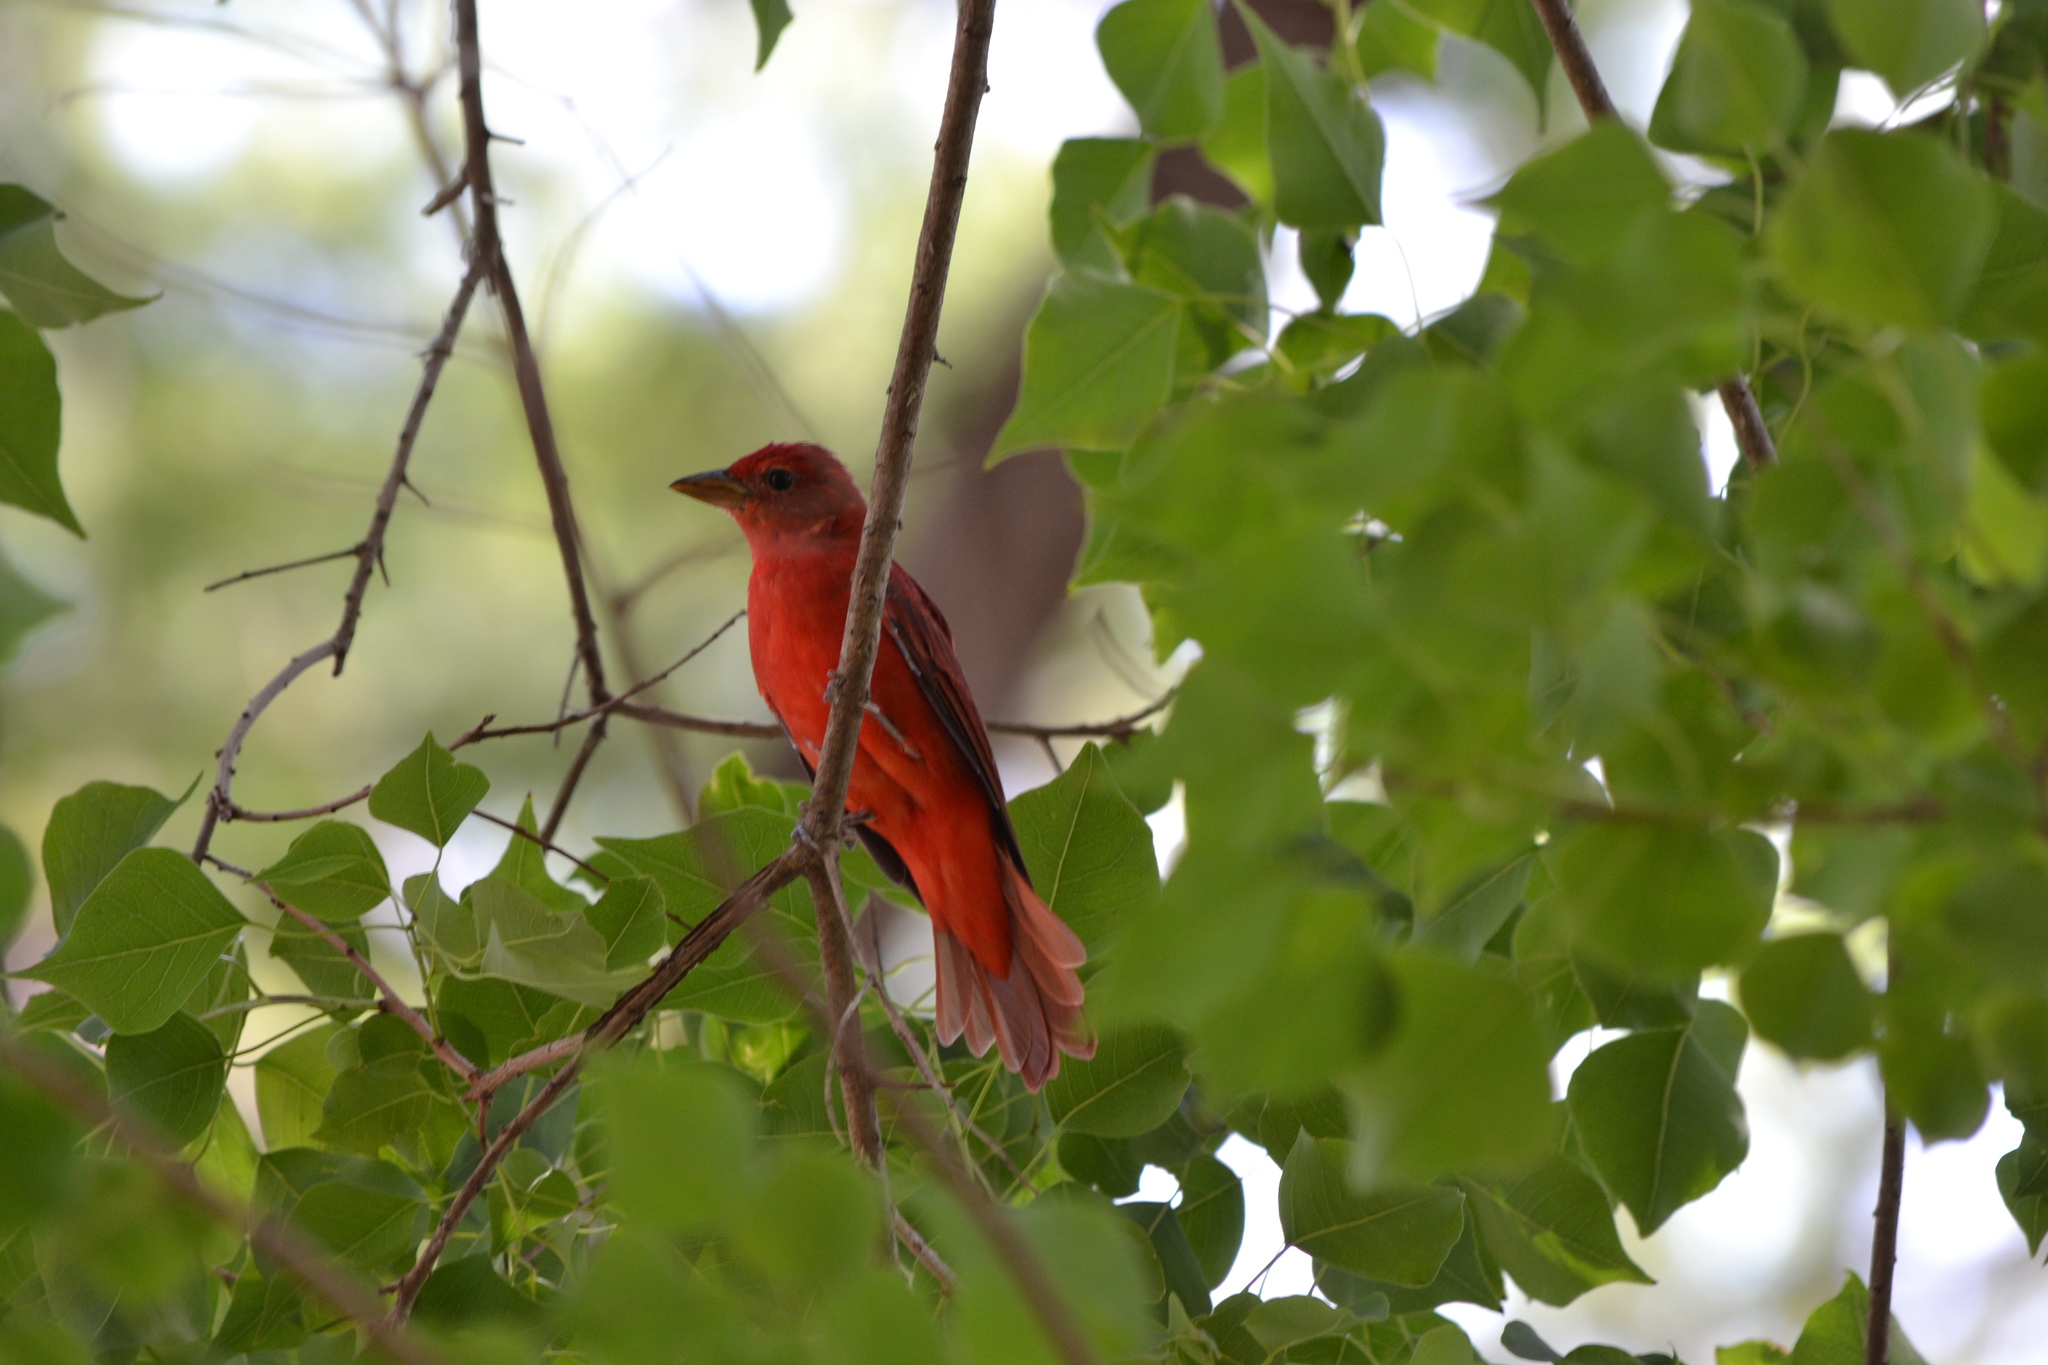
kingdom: Animalia
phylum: Chordata
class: Aves
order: Passeriformes
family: Cardinalidae
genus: Piranga
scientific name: Piranga rubra
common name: Summer tanager
